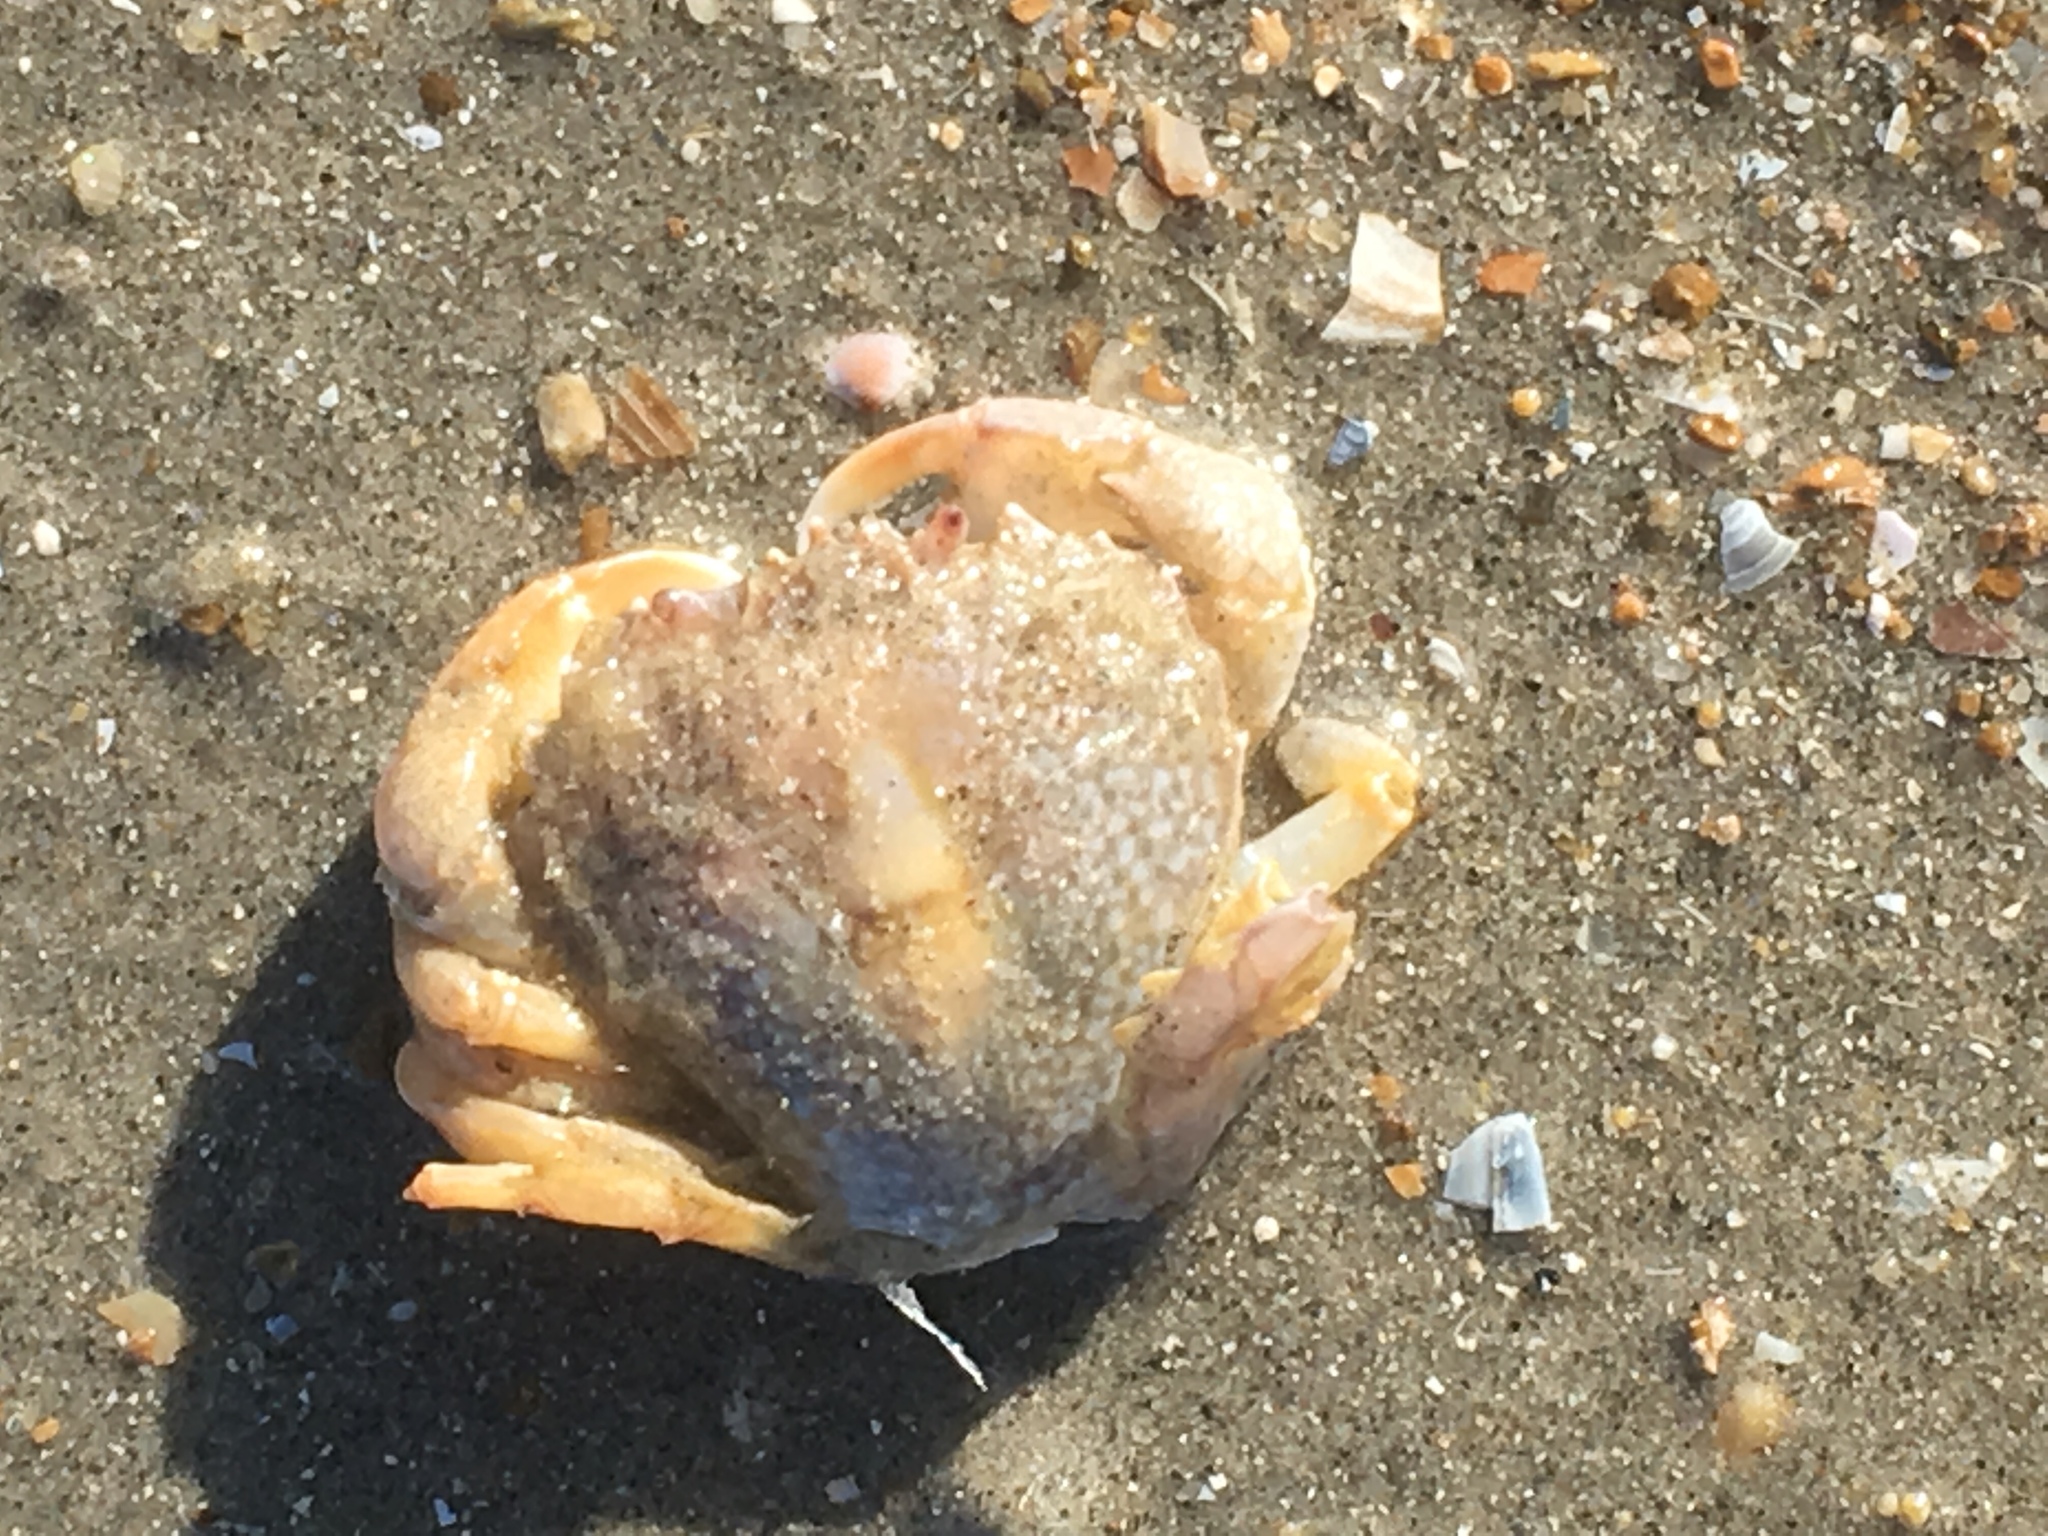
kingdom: Animalia
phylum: Arthropoda
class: Malacostraca
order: Decapoda
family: Carcinidae
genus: Portumnus
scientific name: Portumnus latipes
